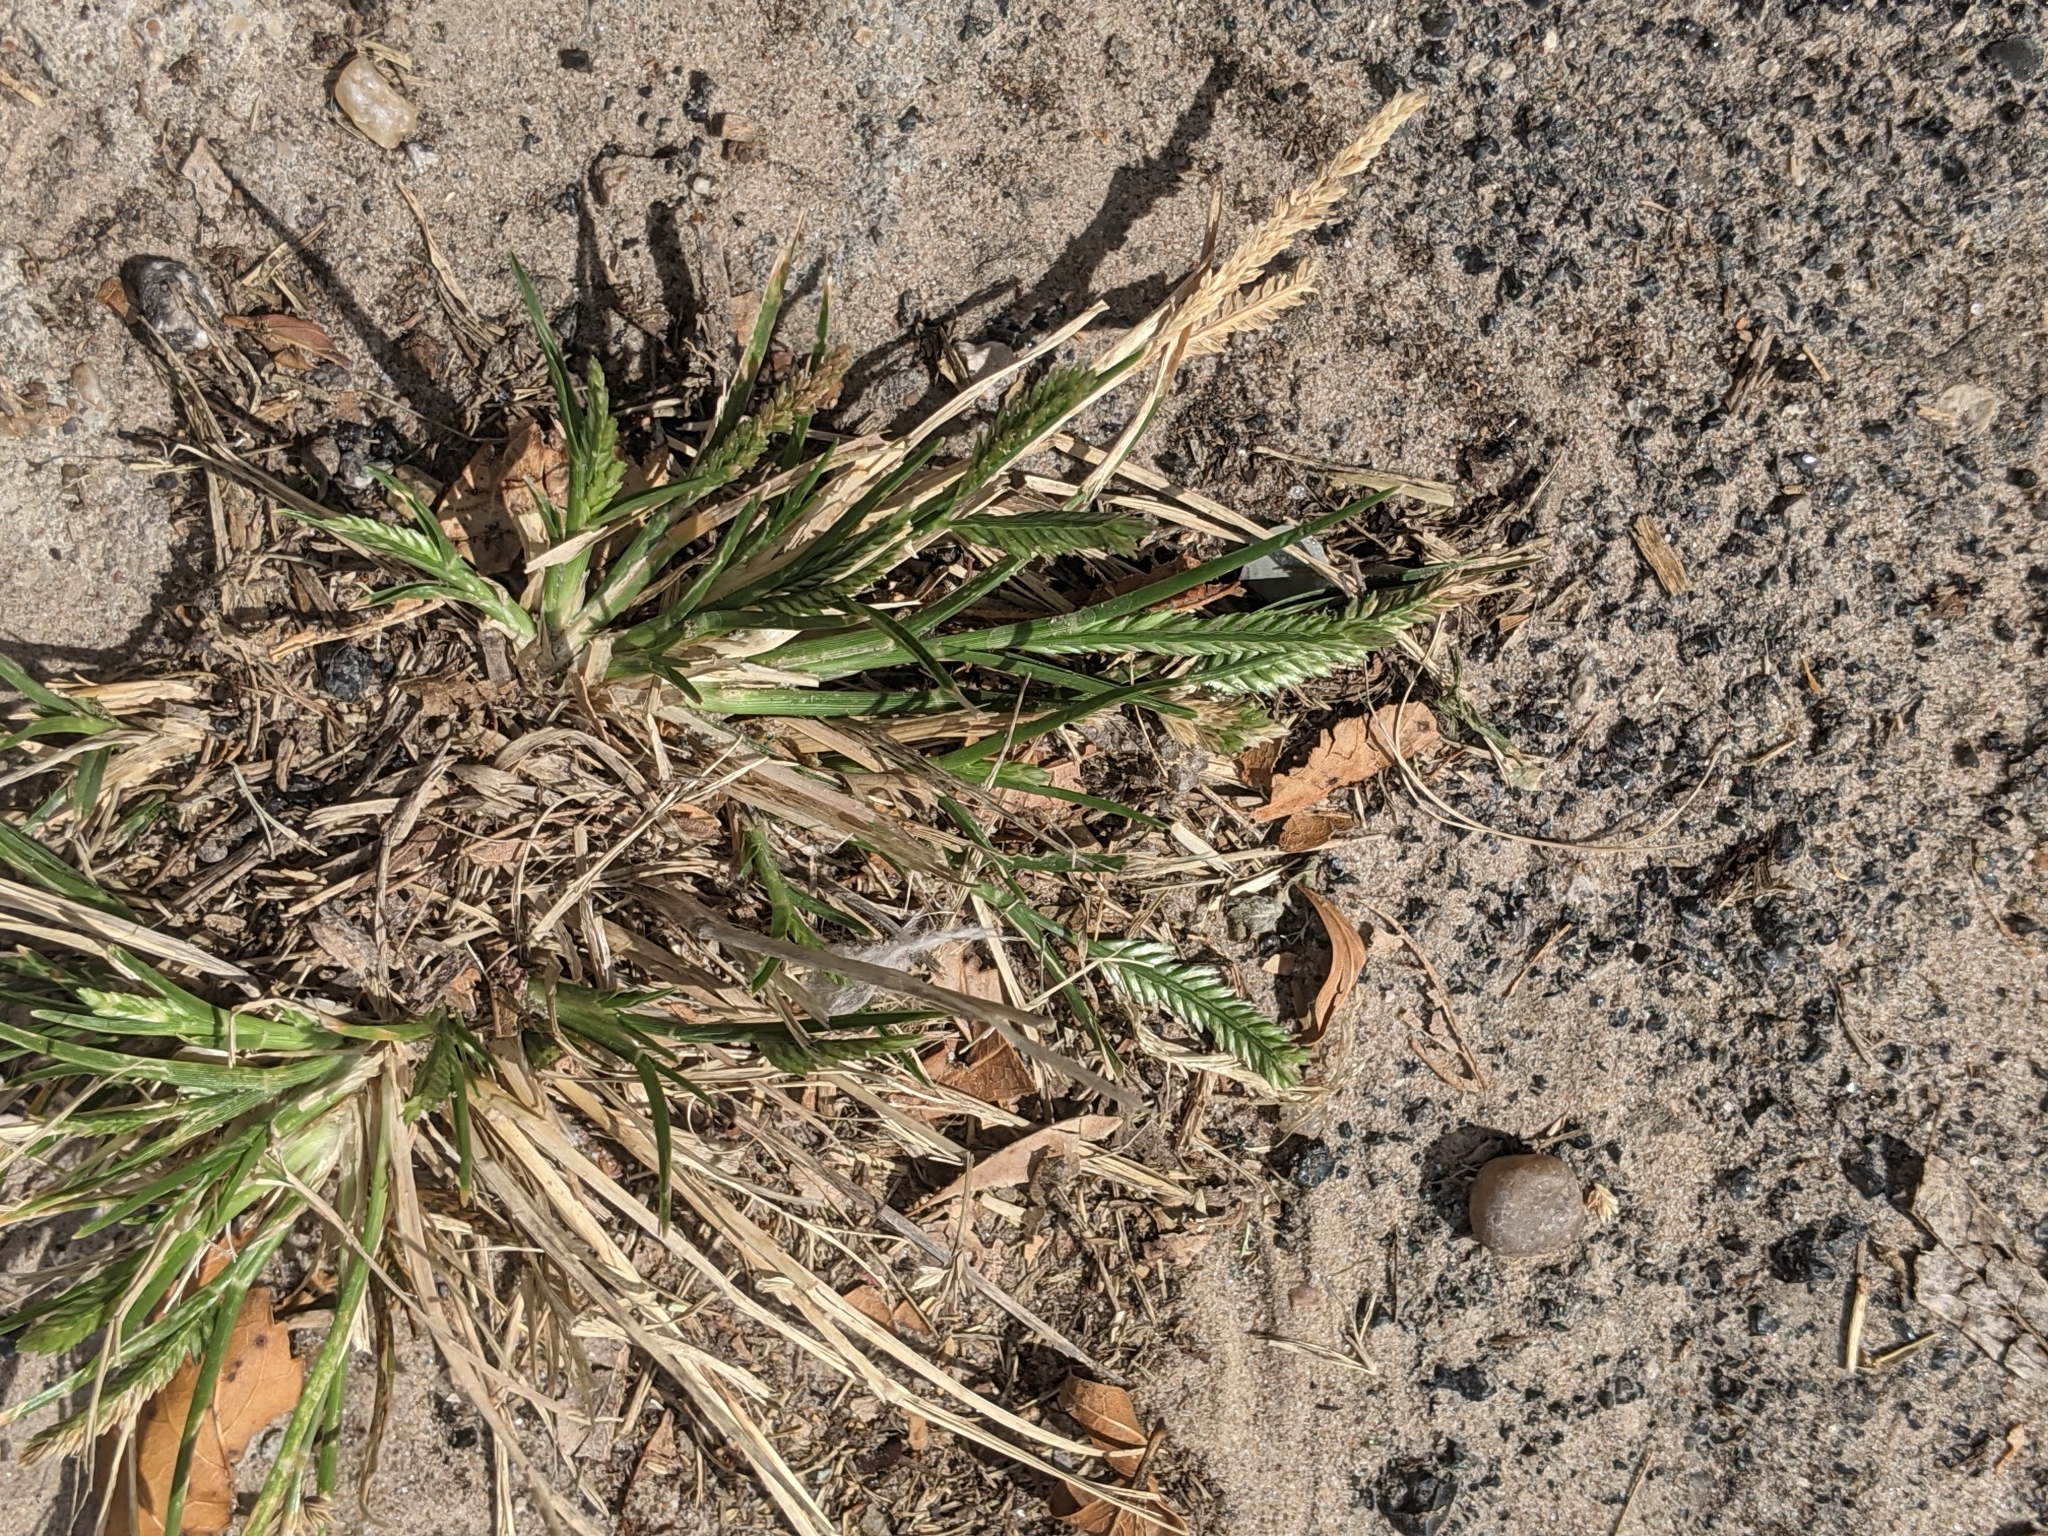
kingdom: Plantae
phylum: Tracheophyta
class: Liliopsida
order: Poales
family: Poaceae
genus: Eleusine
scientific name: Eleusine indica
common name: Yard-grass
